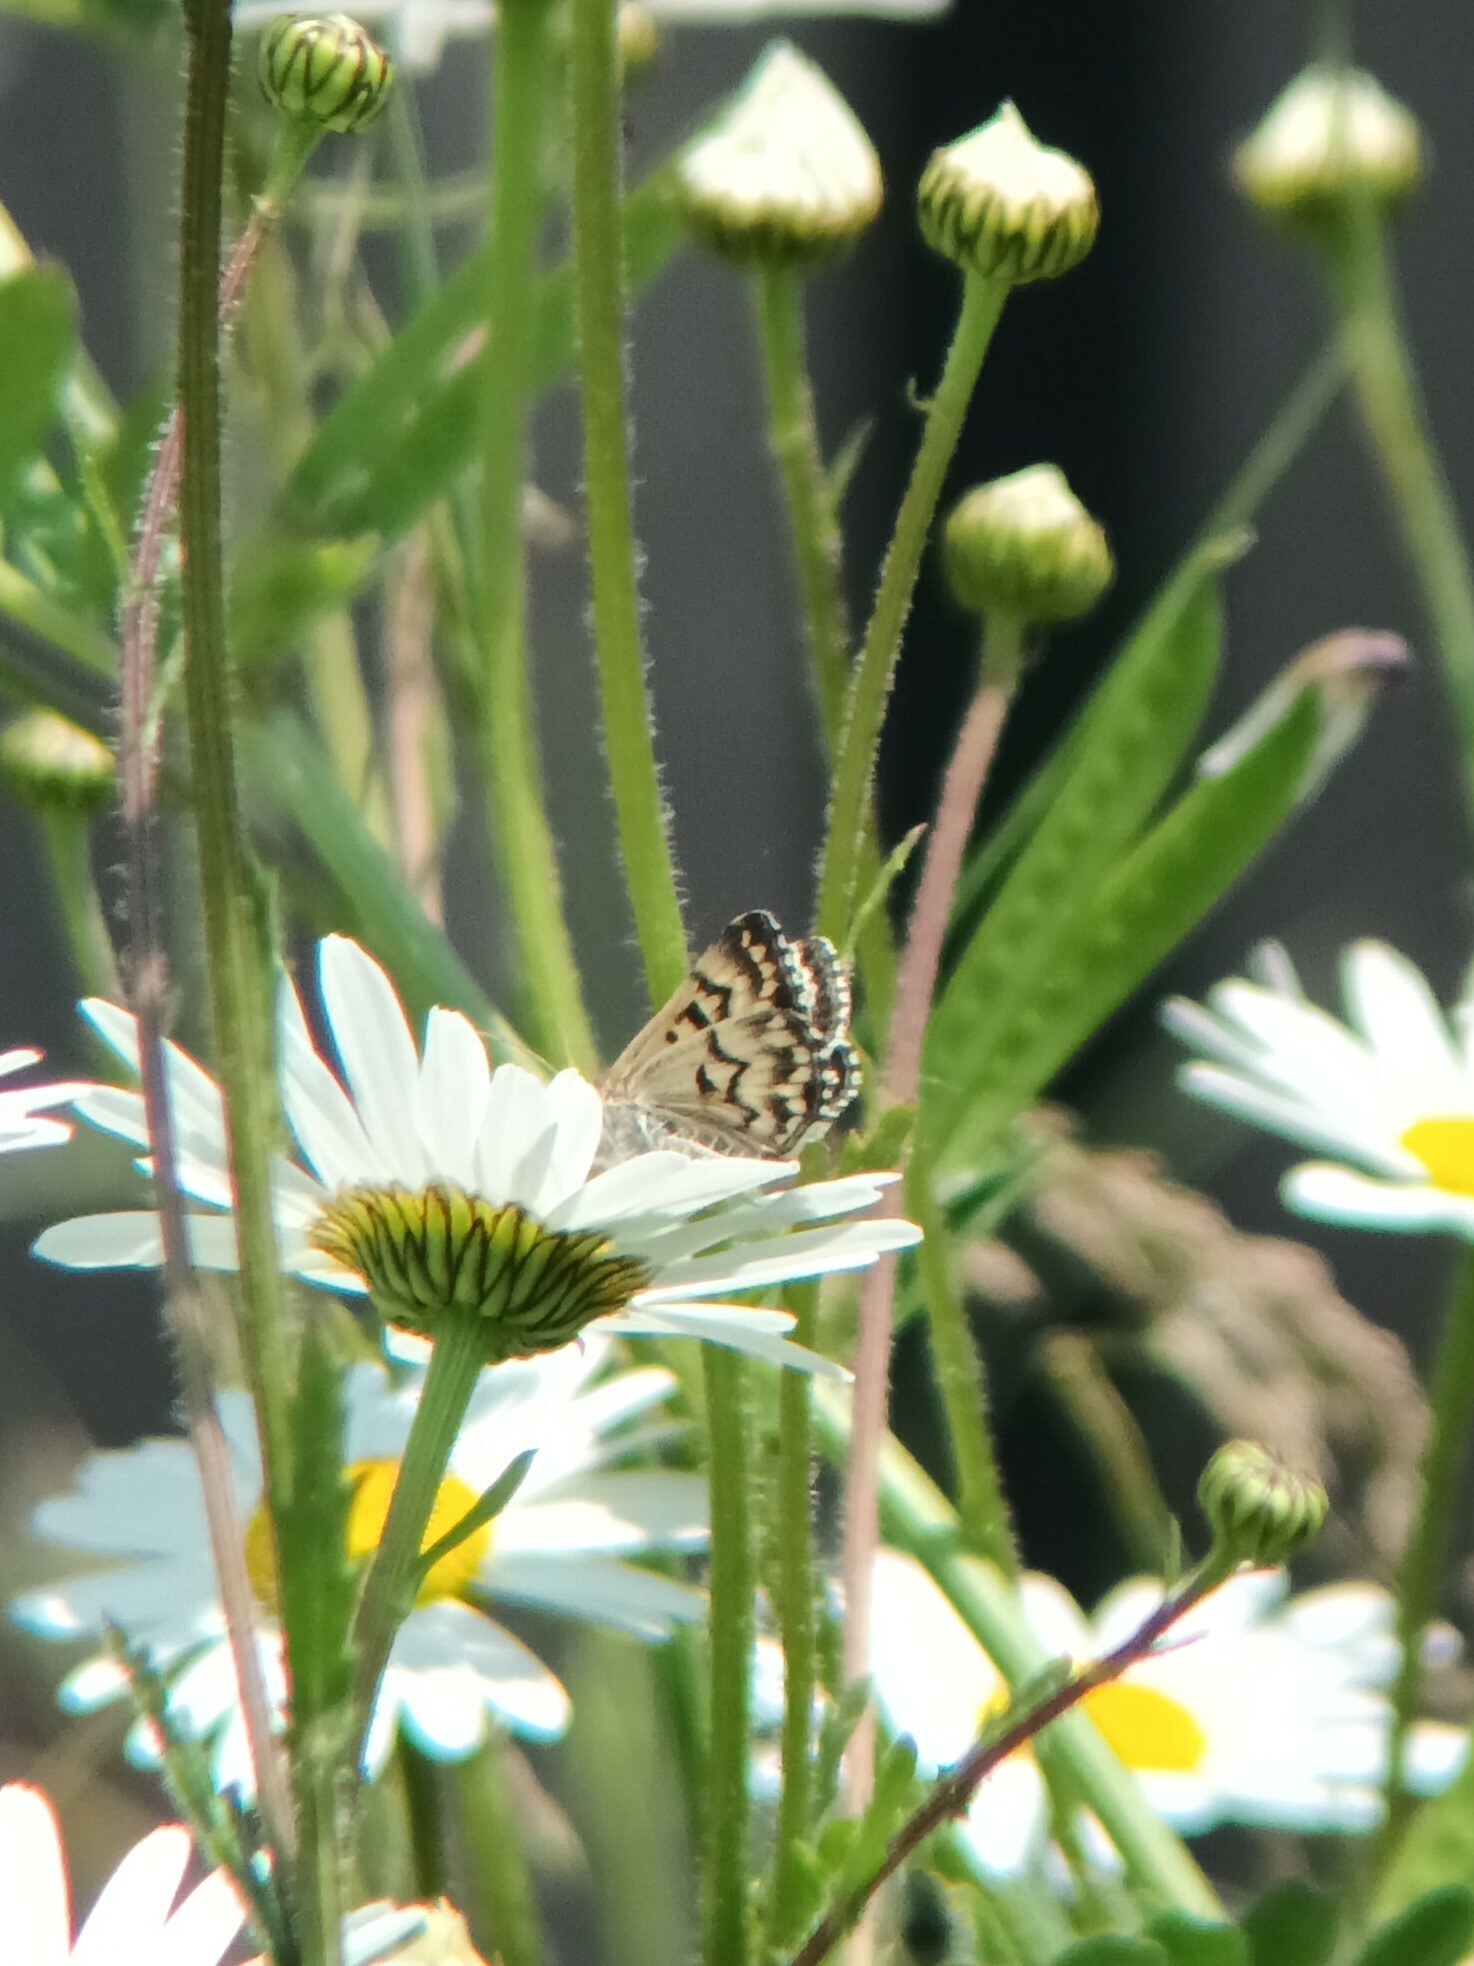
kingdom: Animalia
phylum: Arthropoda
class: Insecta
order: Lepidoptera
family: Erebidae
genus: Callistege
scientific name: Callistege mi
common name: Mother shipton
